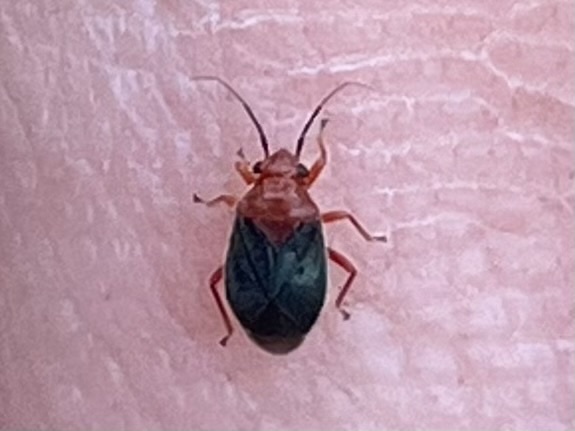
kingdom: Animalia
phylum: Arthropoda
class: Insecta
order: Hemiptera
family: Miridae
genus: Halticotoma
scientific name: Halticotoma valida
